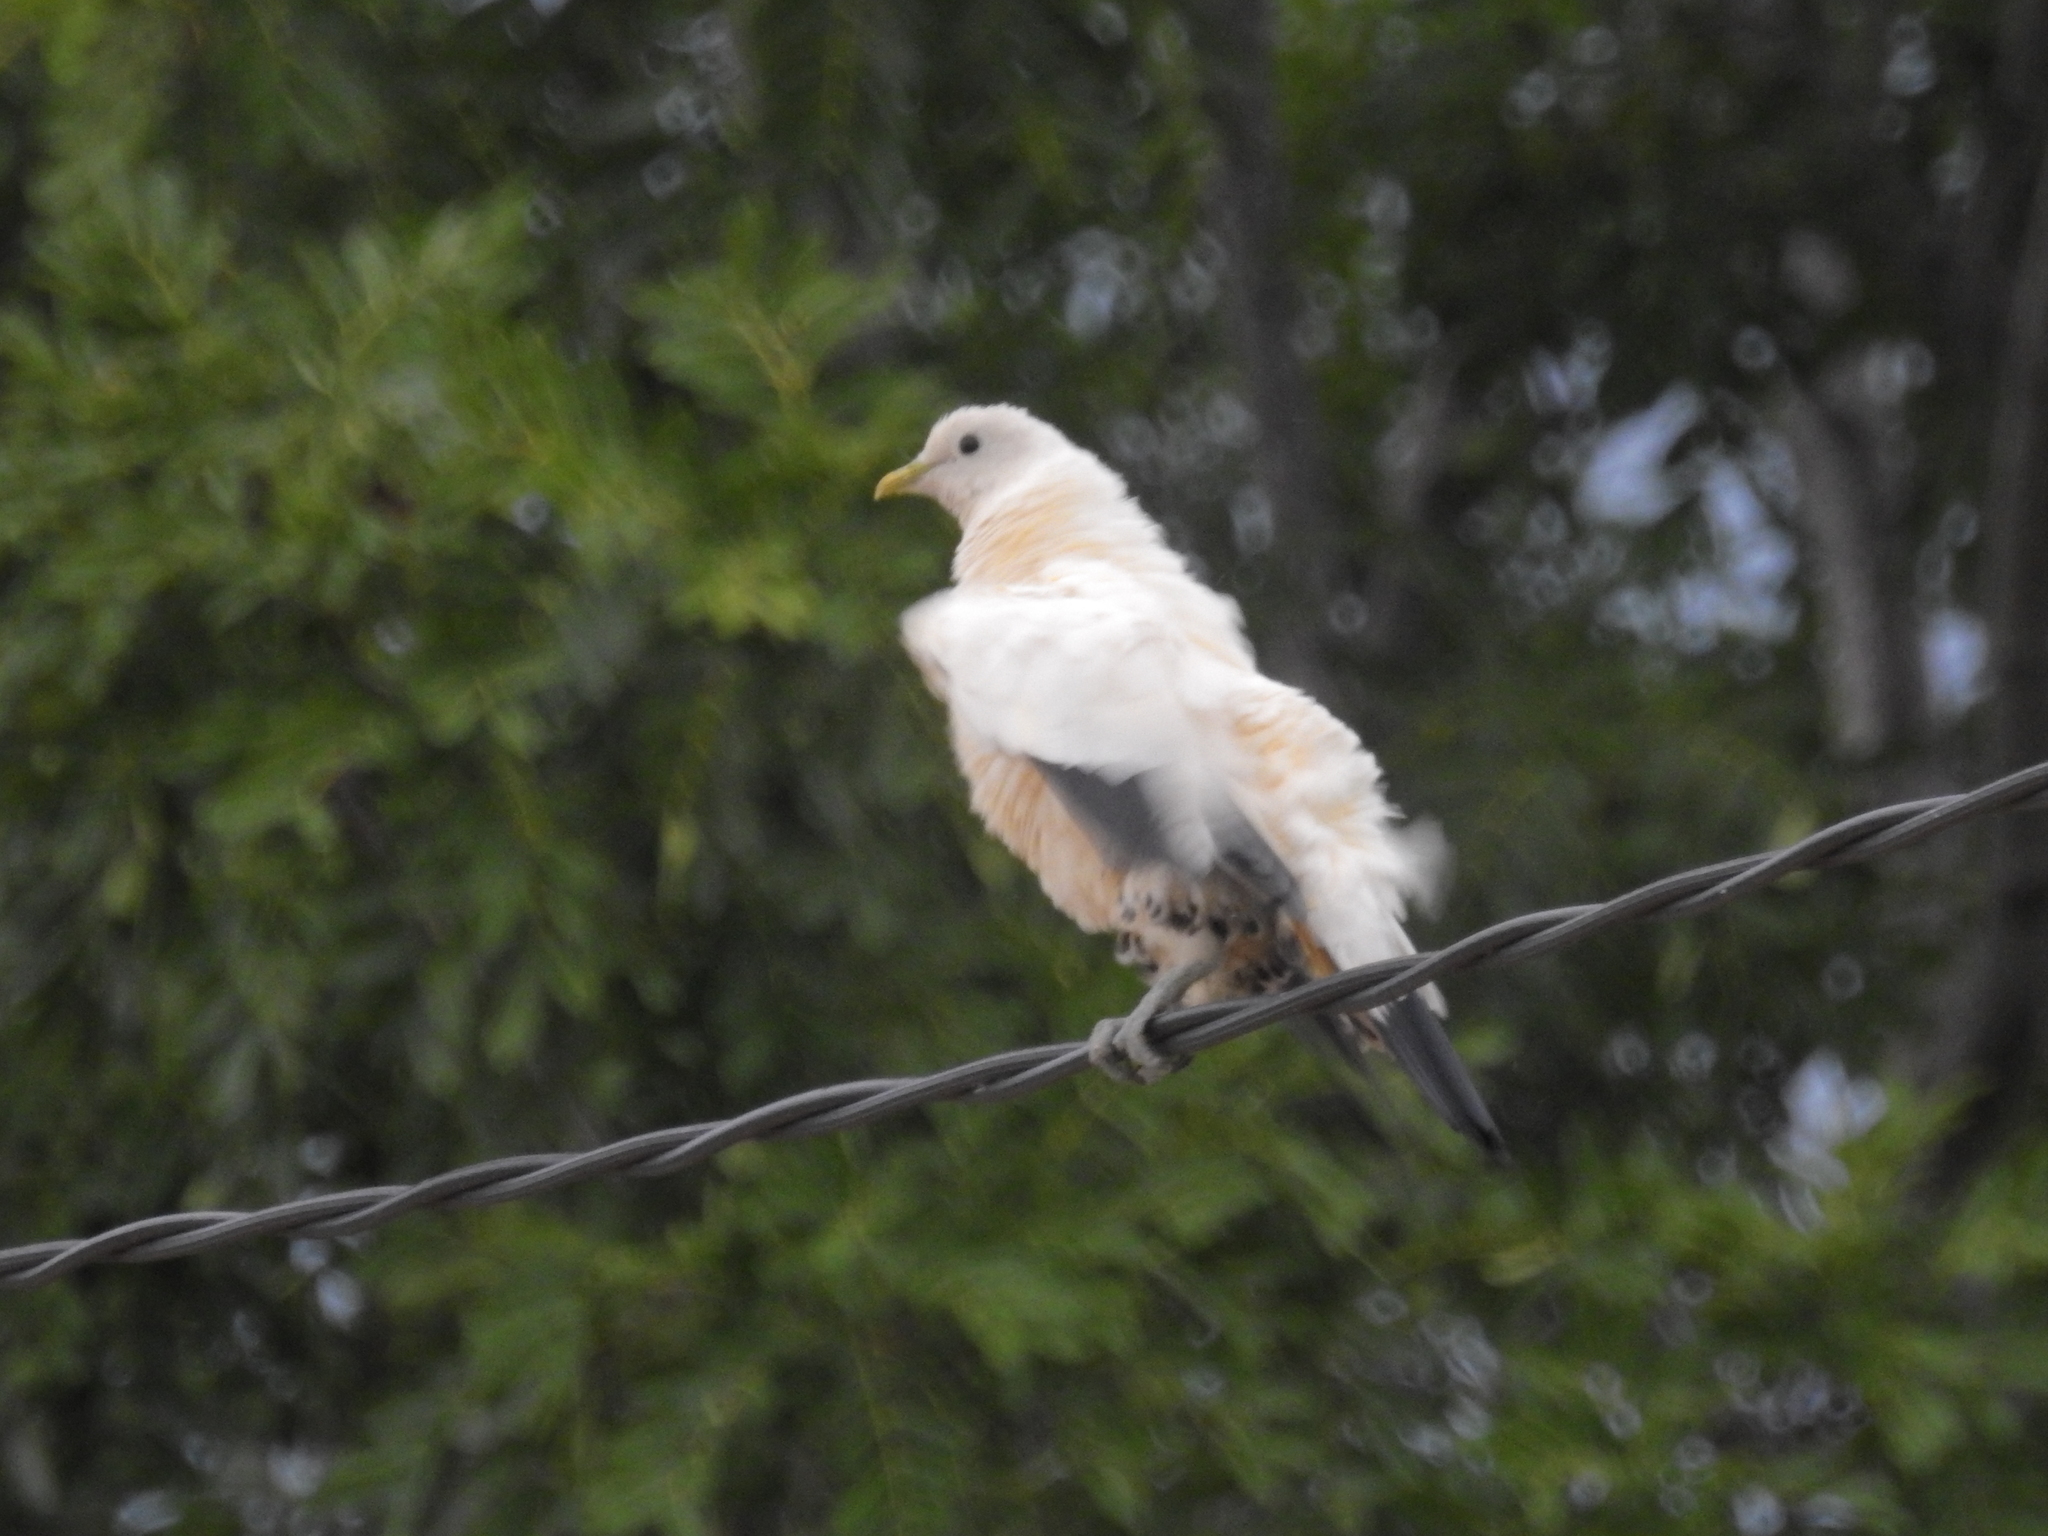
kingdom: Animalia
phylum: Chordata
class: Aves
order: Columbiformes
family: Columbidae
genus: Ducula
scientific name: Ducula spilorrhoa
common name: Torresian imperial pigeon
